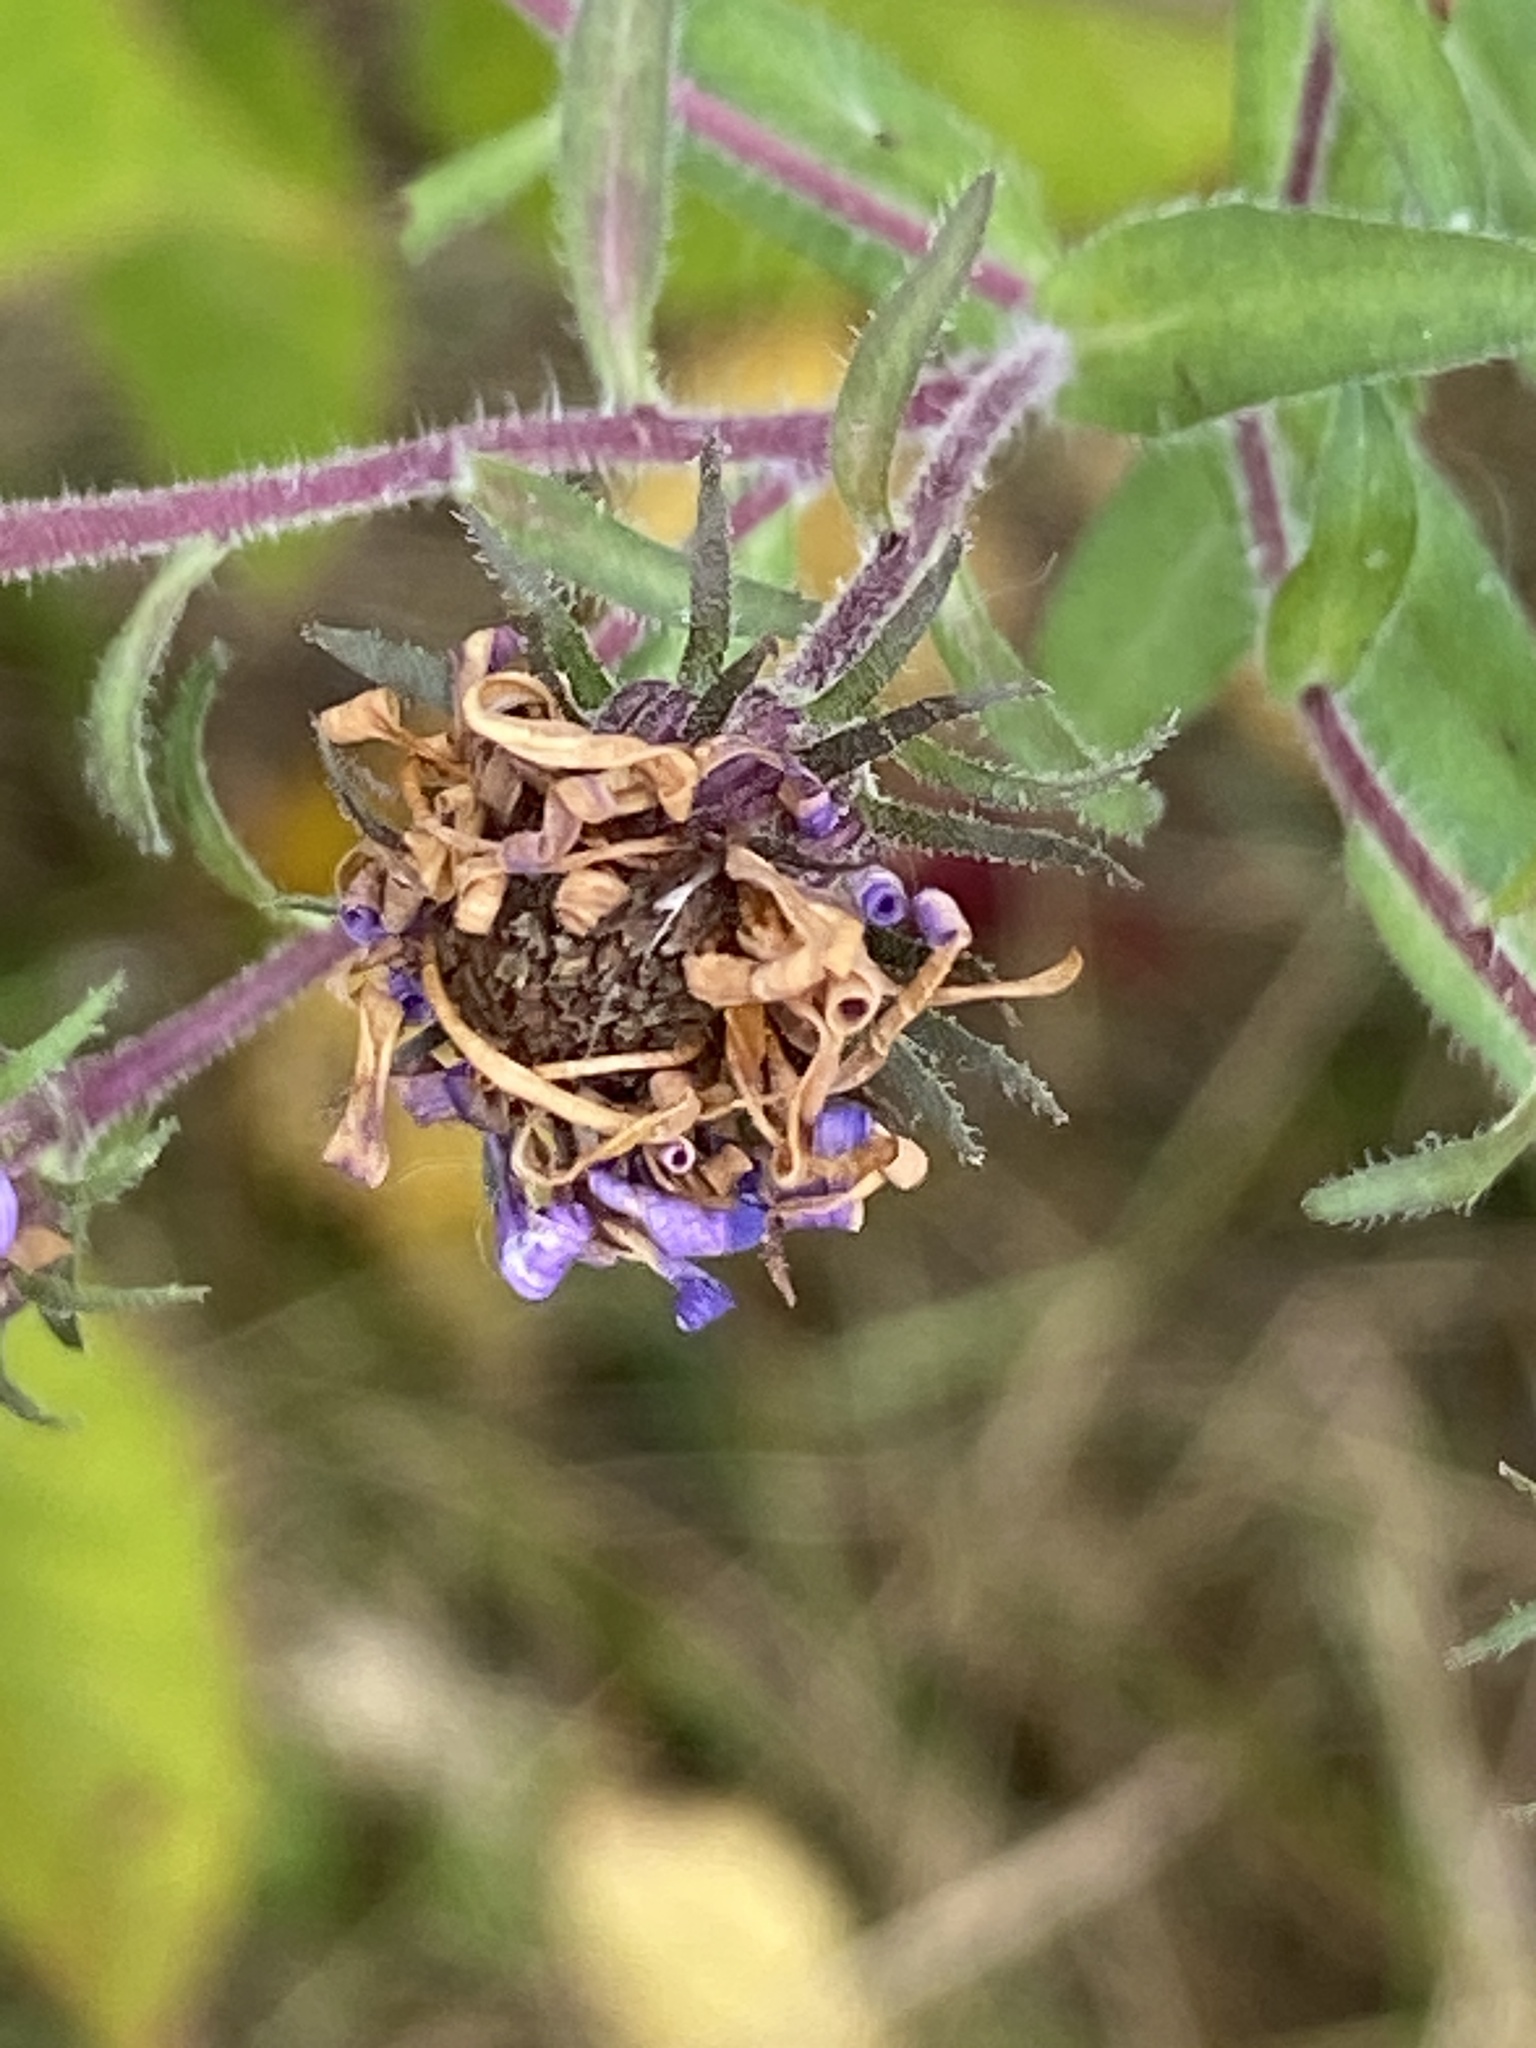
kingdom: Plantae
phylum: Tracheophyta
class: Magnoliopsida
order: Asterales
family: Asteraceae
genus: Symphyotrichum
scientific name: Symphyotrichum novae-angliae
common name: Michaelmas daisy
